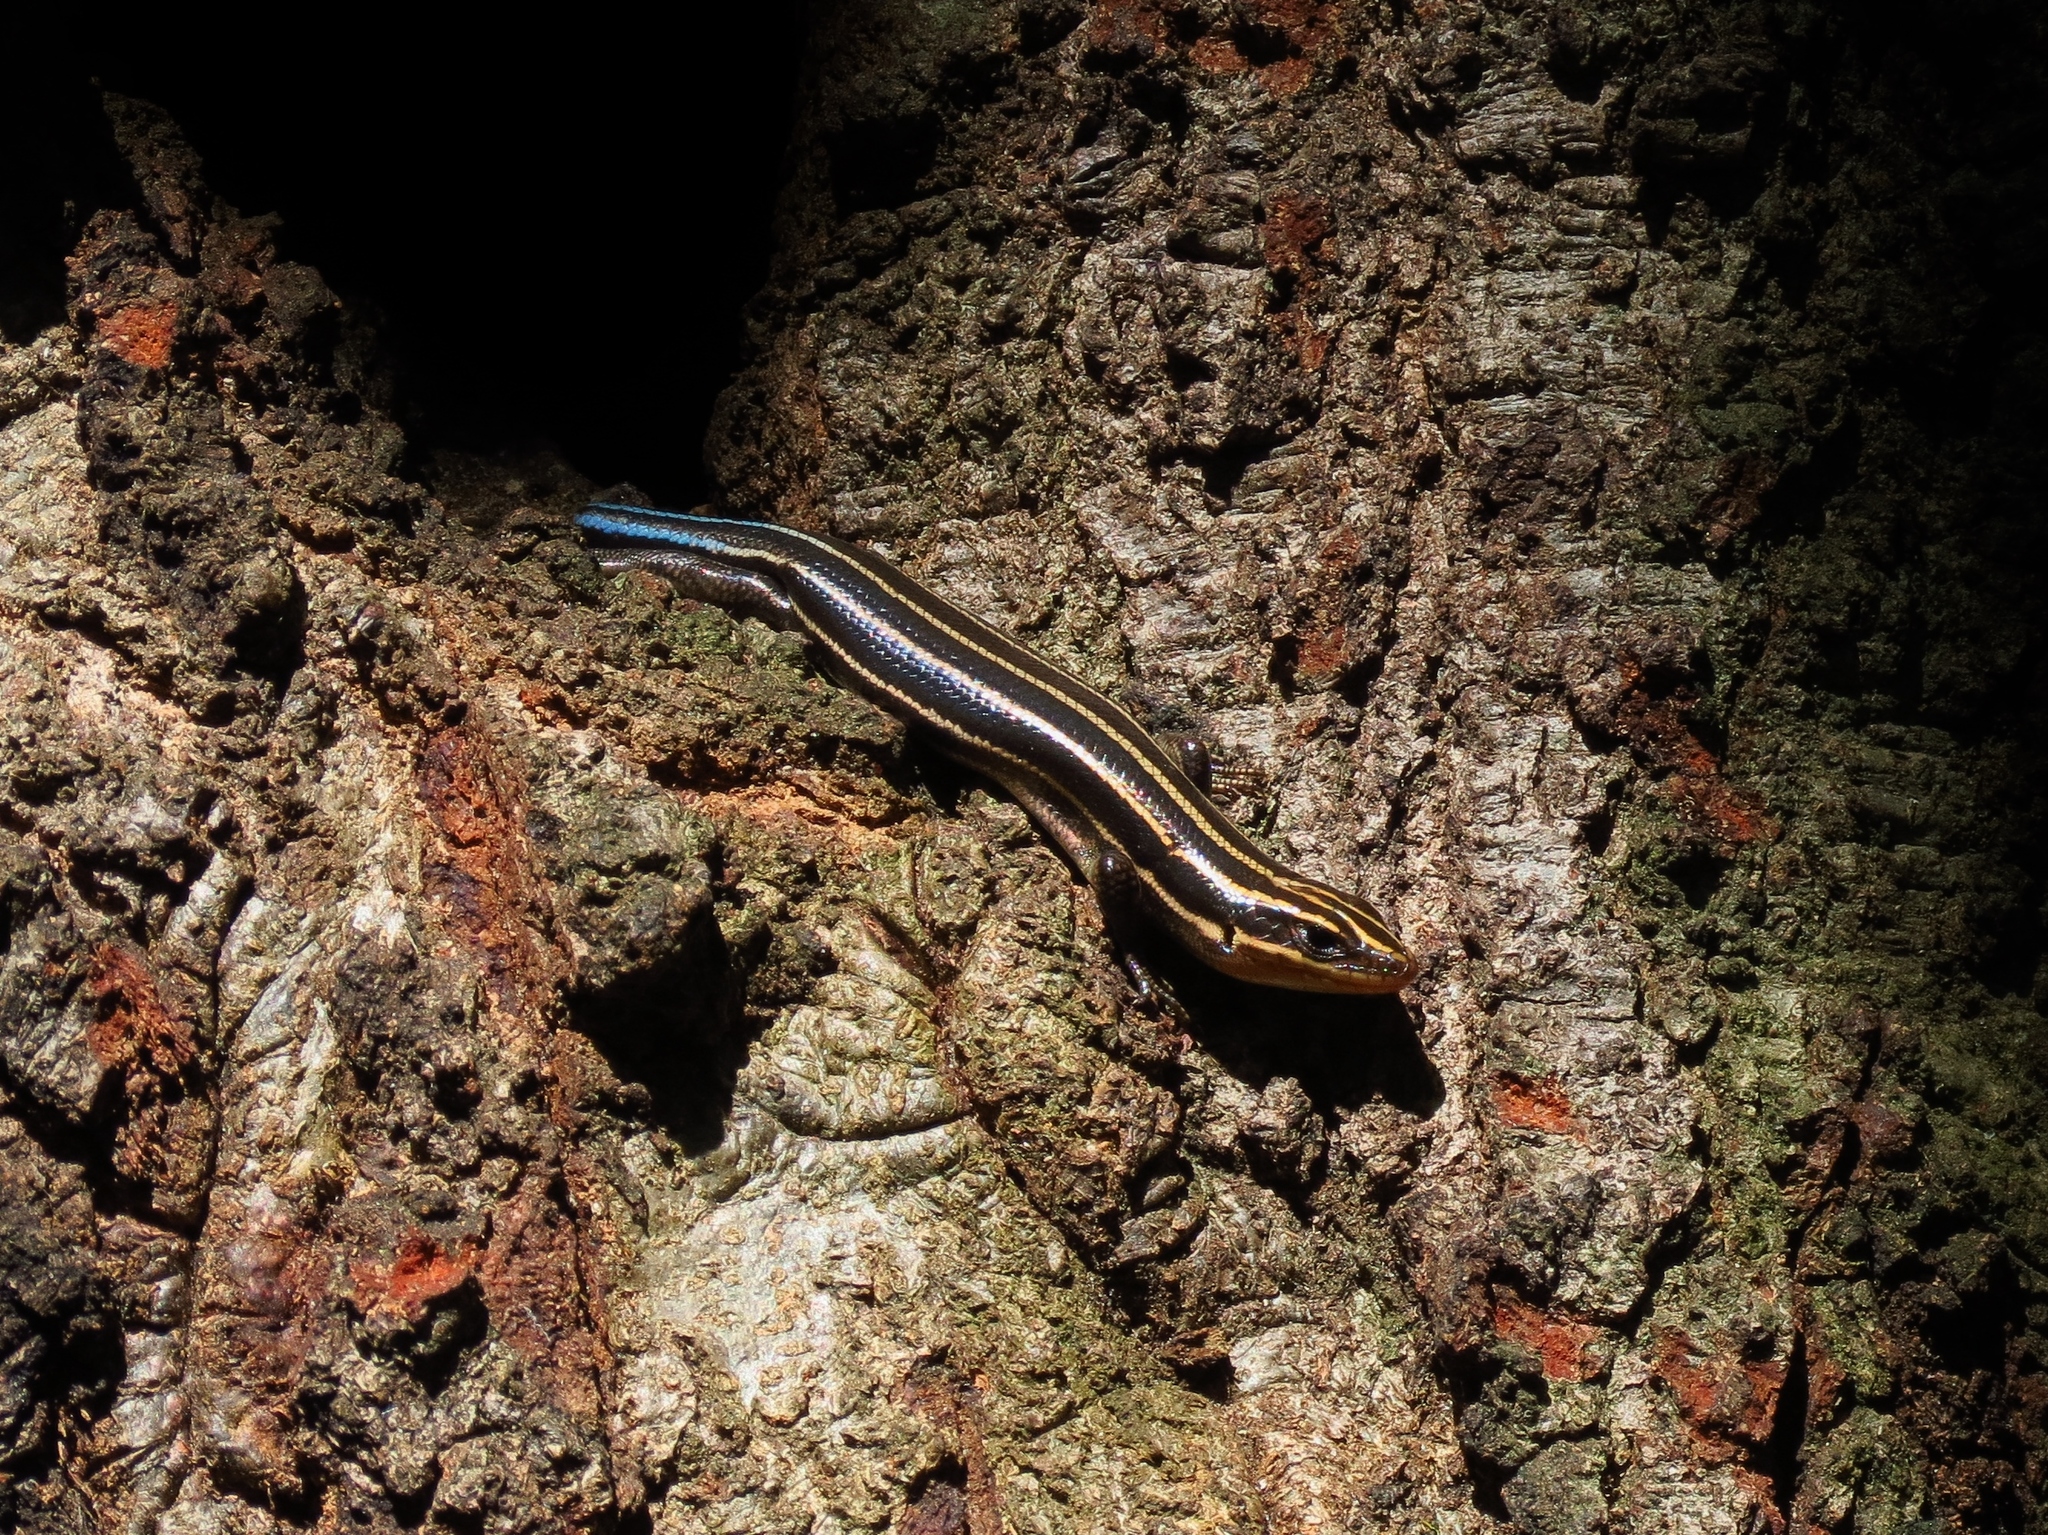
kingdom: Animalia
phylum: Chordata
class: Squamata
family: Scincidae
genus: Plestiodon
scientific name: Plestiodon fasciatus
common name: Five-lined skink
